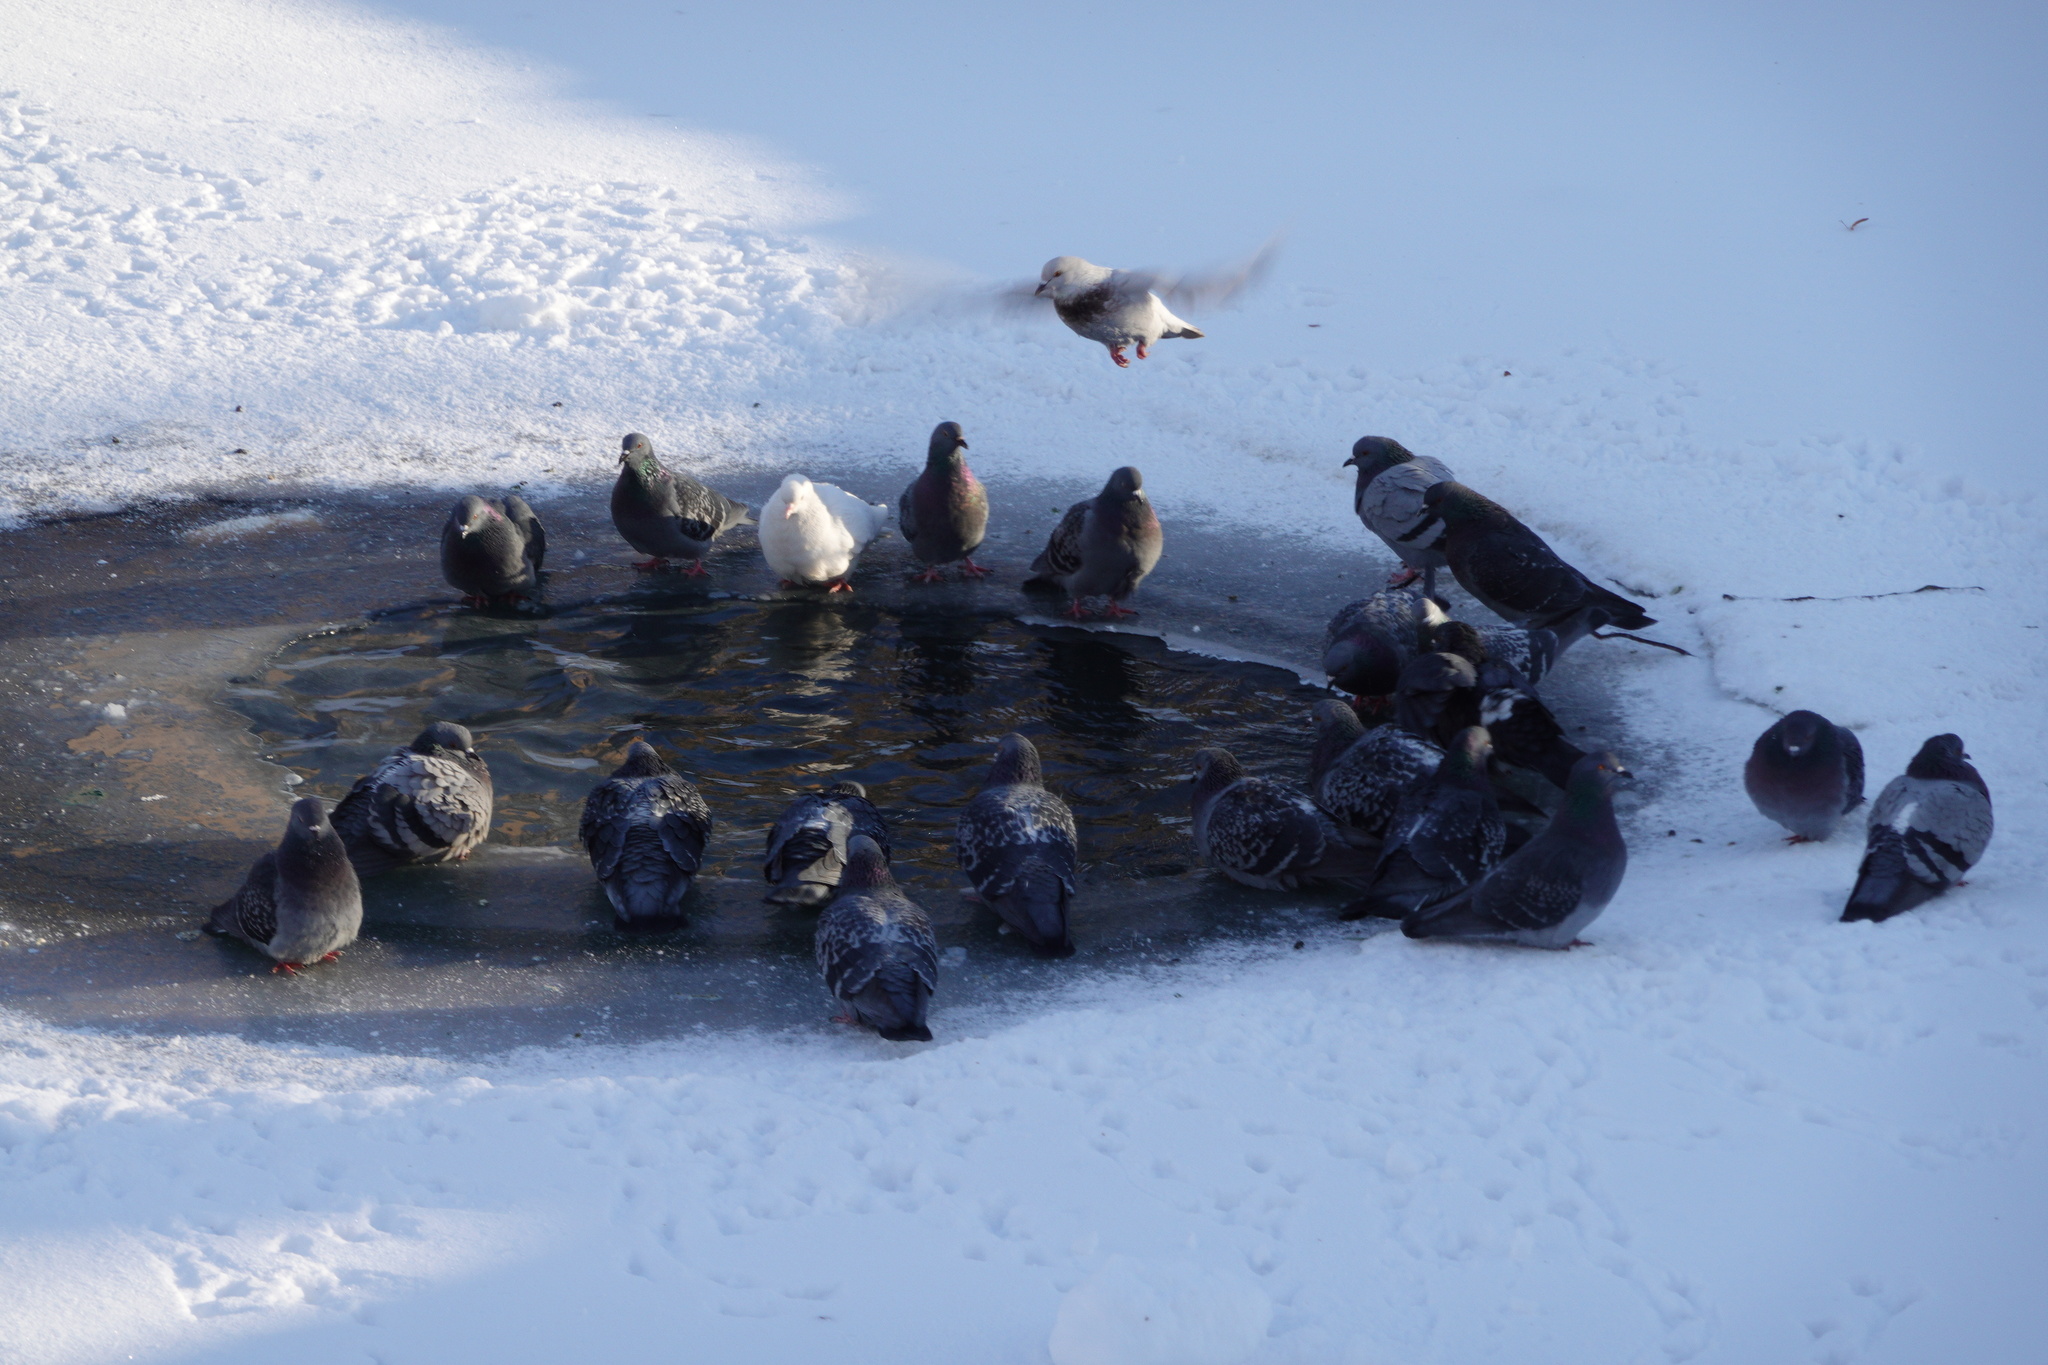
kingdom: Animalia
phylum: Chordata
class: Aves
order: Columbiformes
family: Columbidae
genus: Columba
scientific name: Columba livia
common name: Rock pigeon
